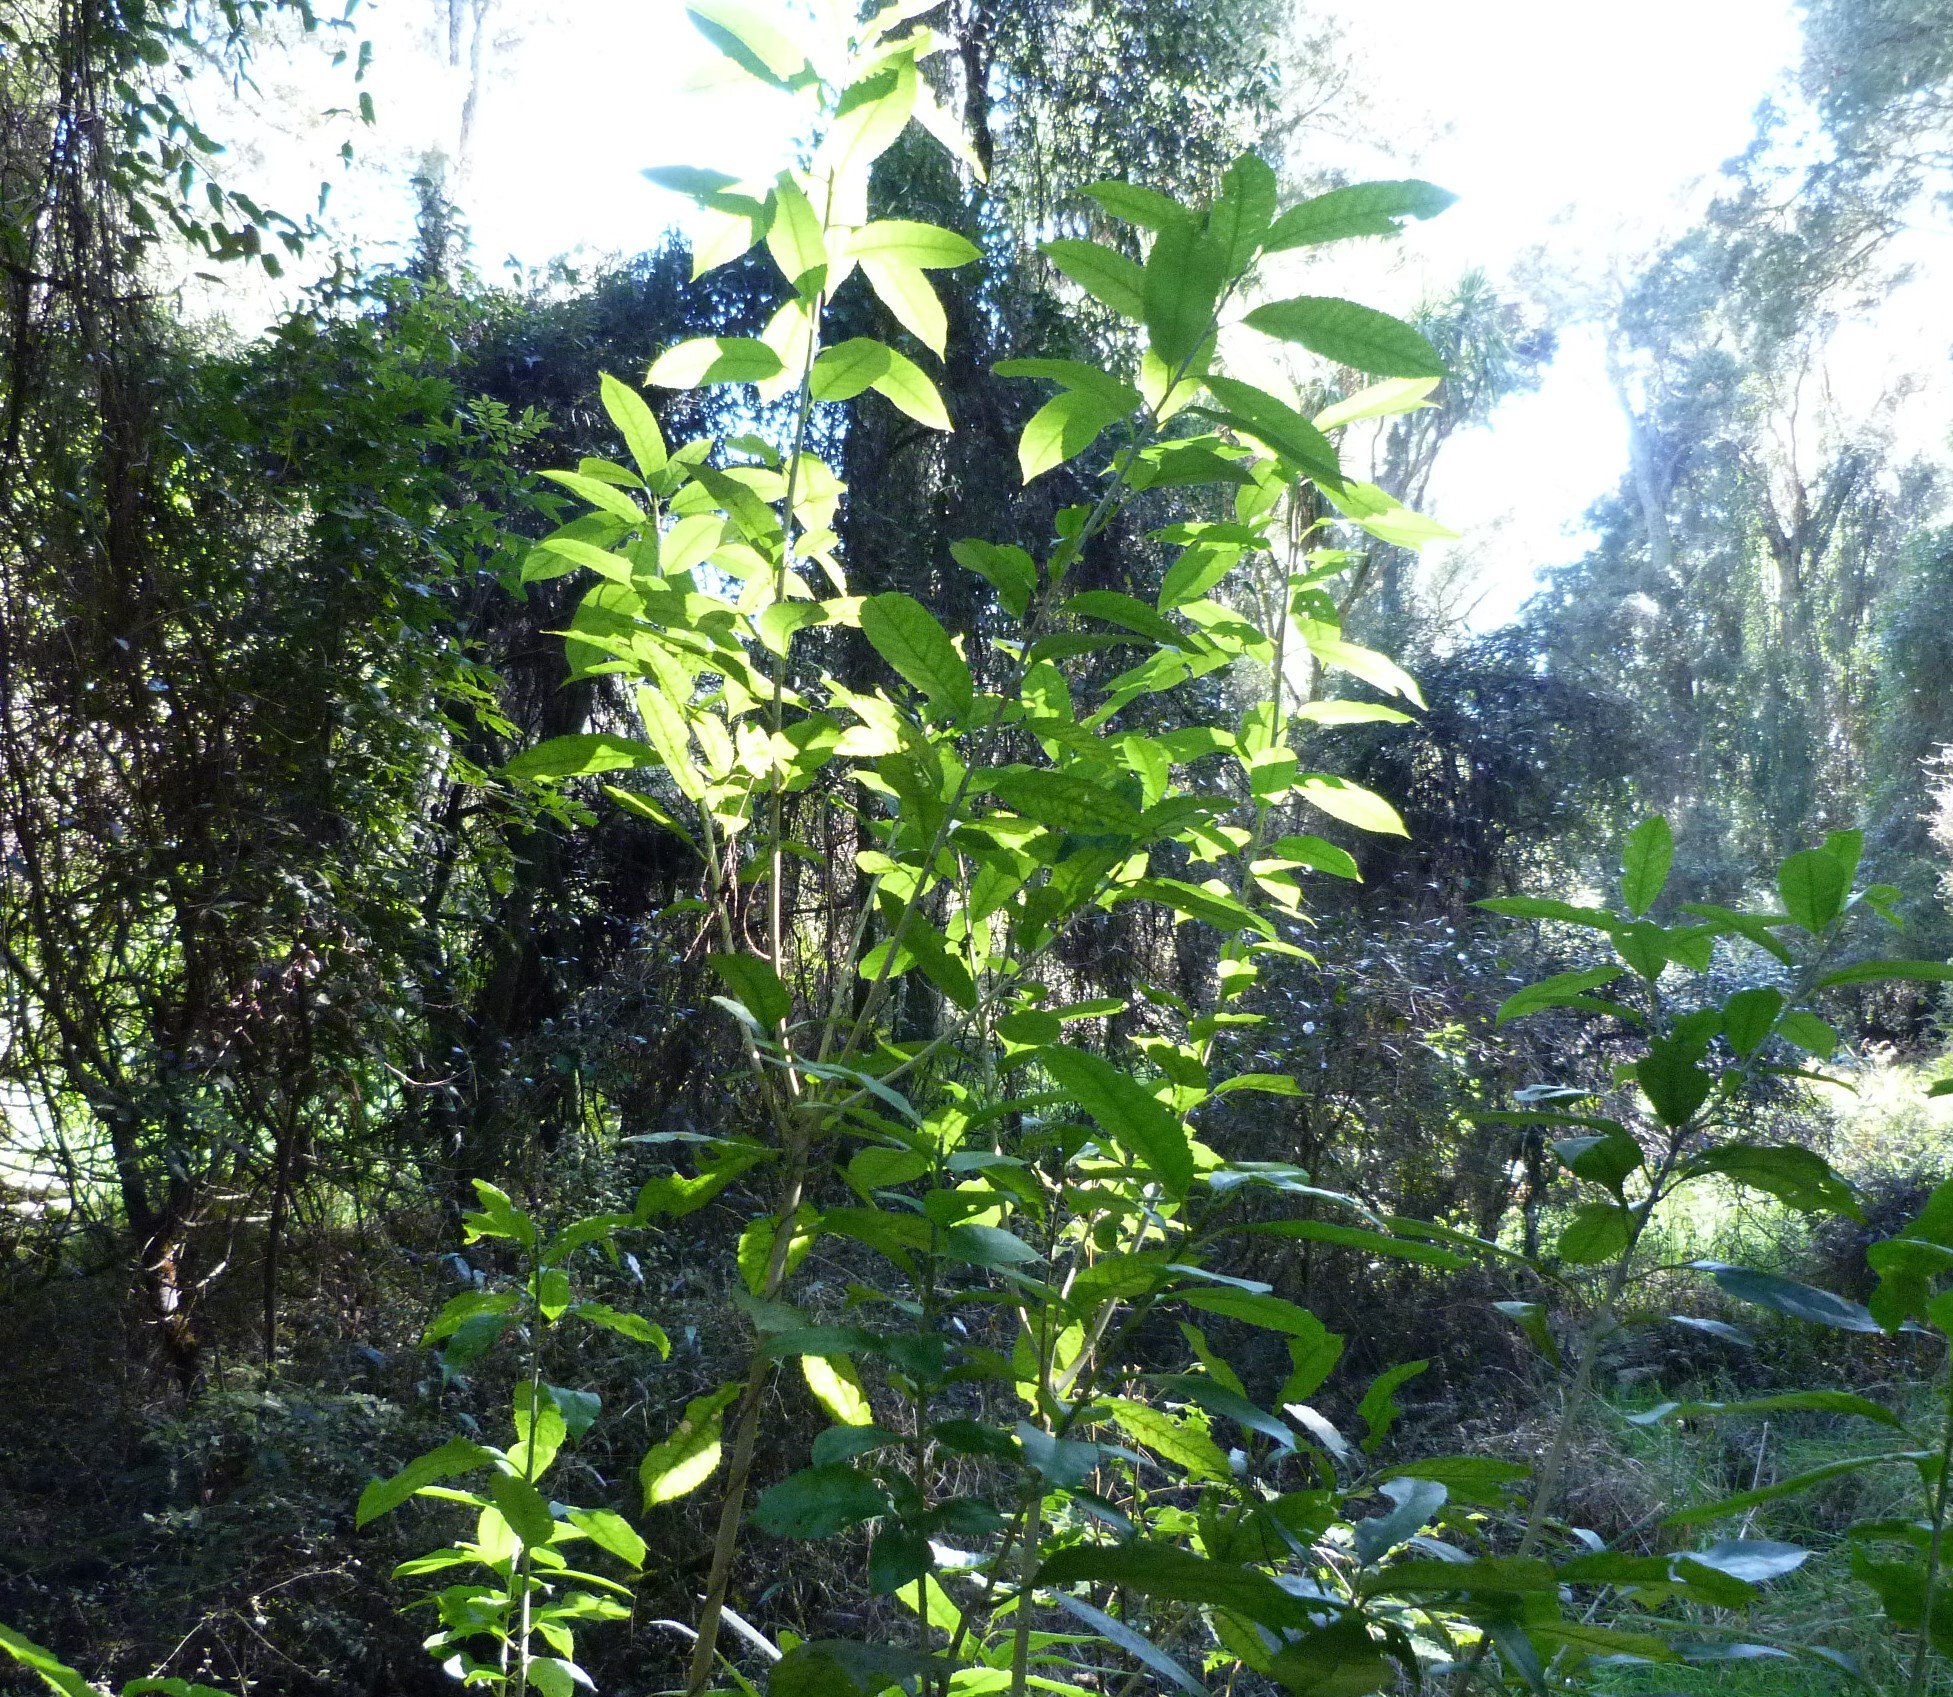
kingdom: Plantae
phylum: Tracheophyta
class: Magnoliopsida
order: Malpighiales
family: Violaceae
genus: Melicytus
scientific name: Melicytus ramiflorus
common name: Mahoe
